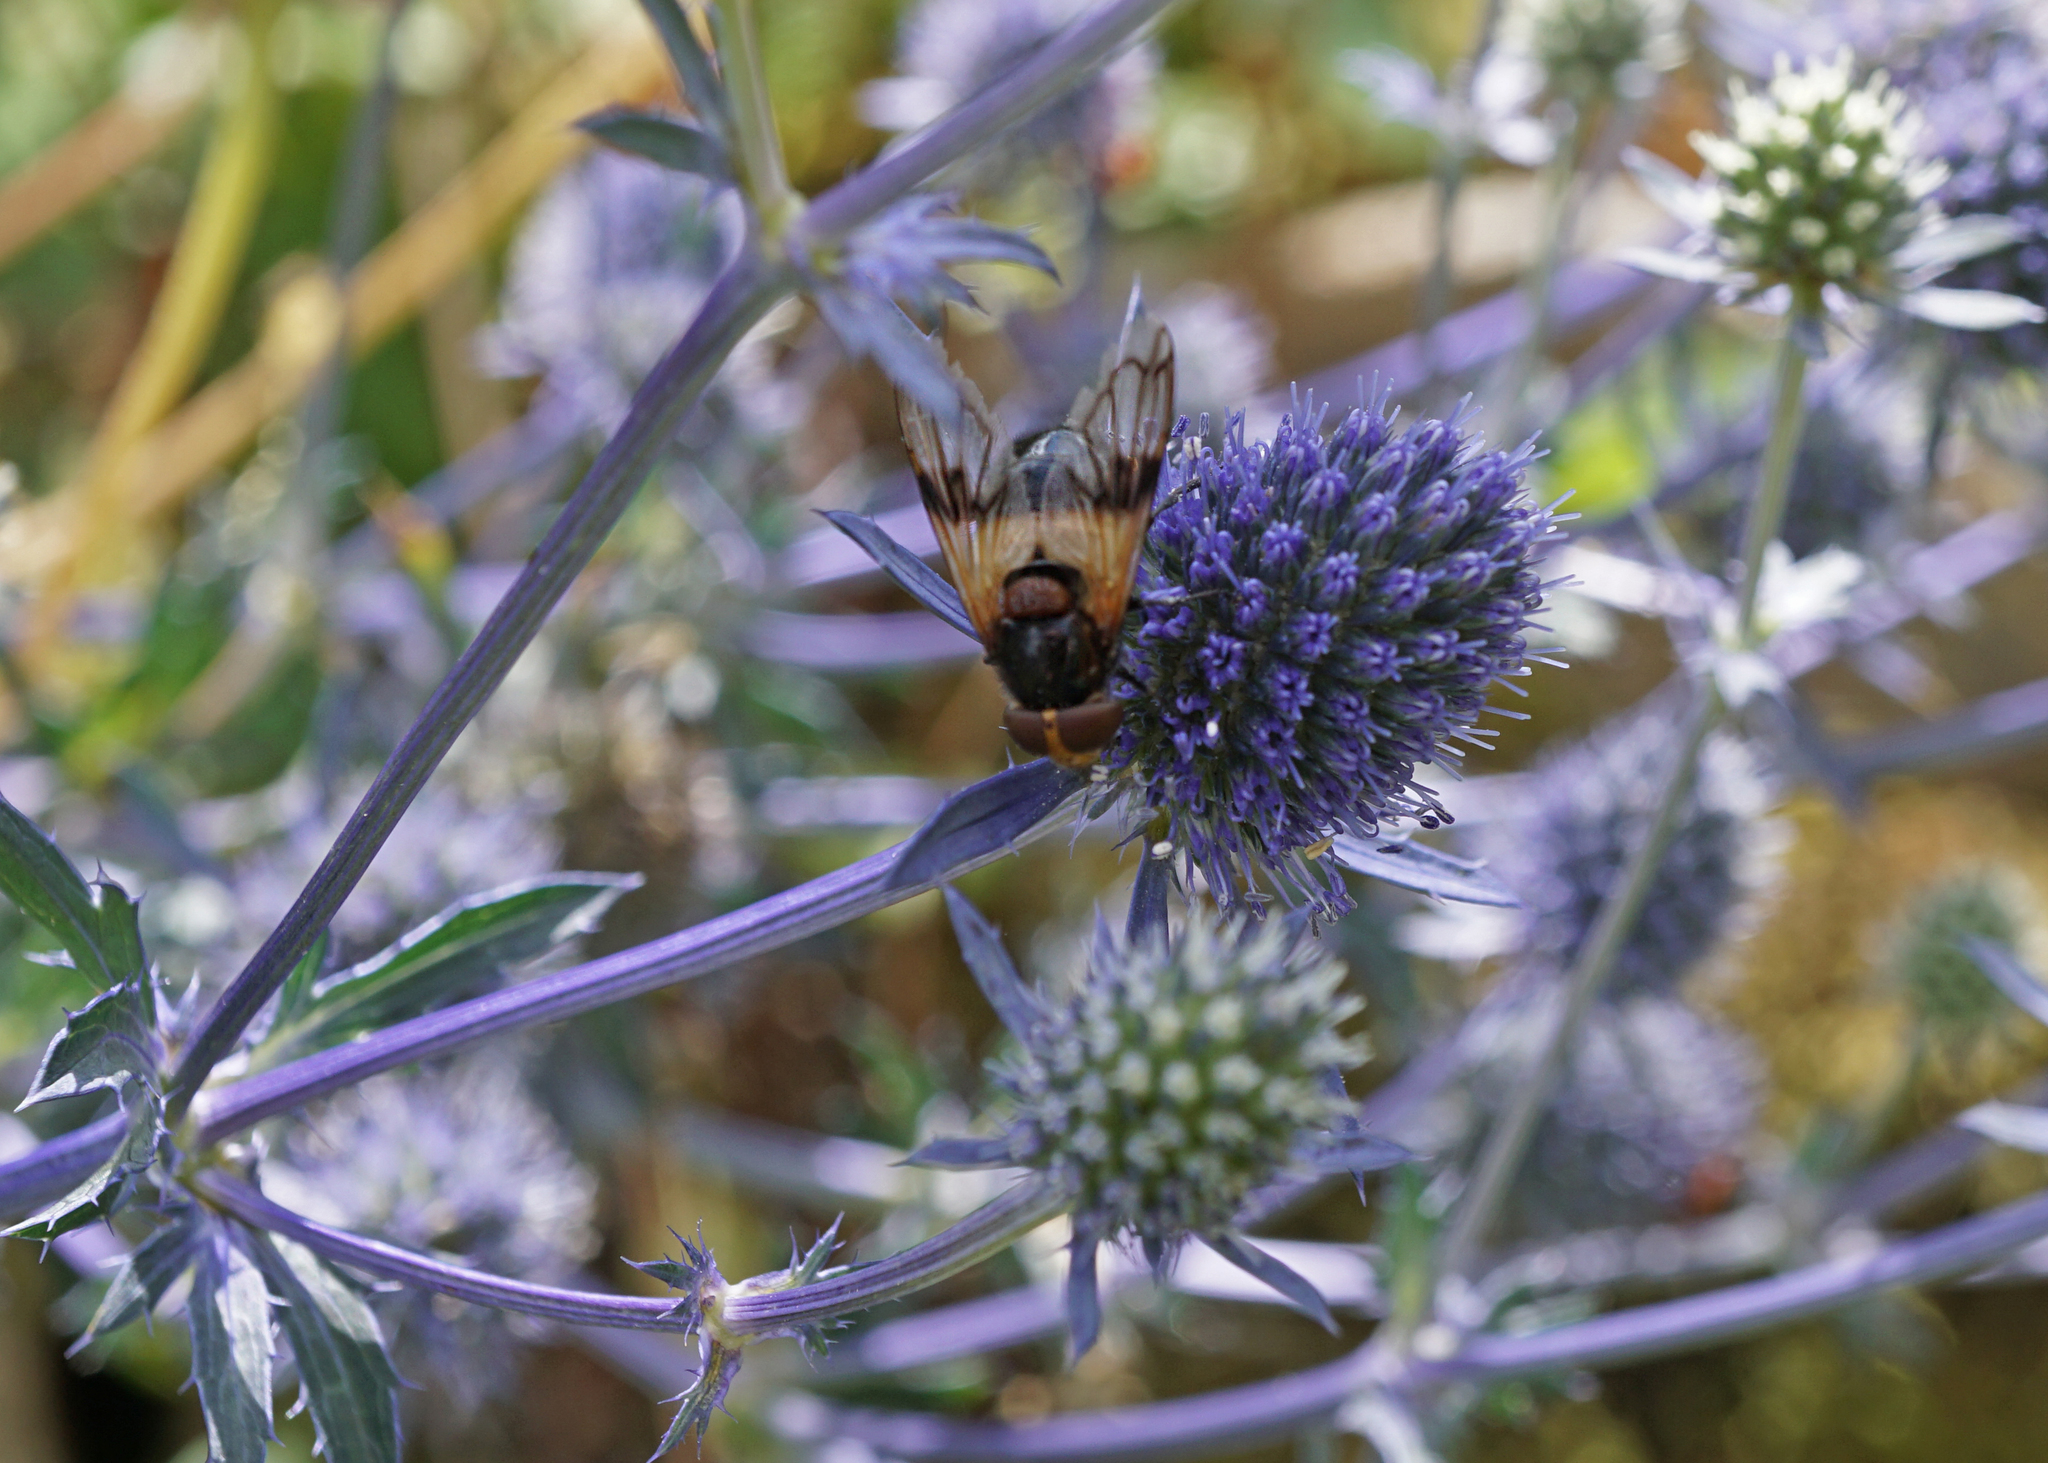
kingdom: Animalia
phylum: Arthropoda
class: Insecta
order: Diptera
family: Syrphidae
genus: Volucella
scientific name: Volucella pellucens
